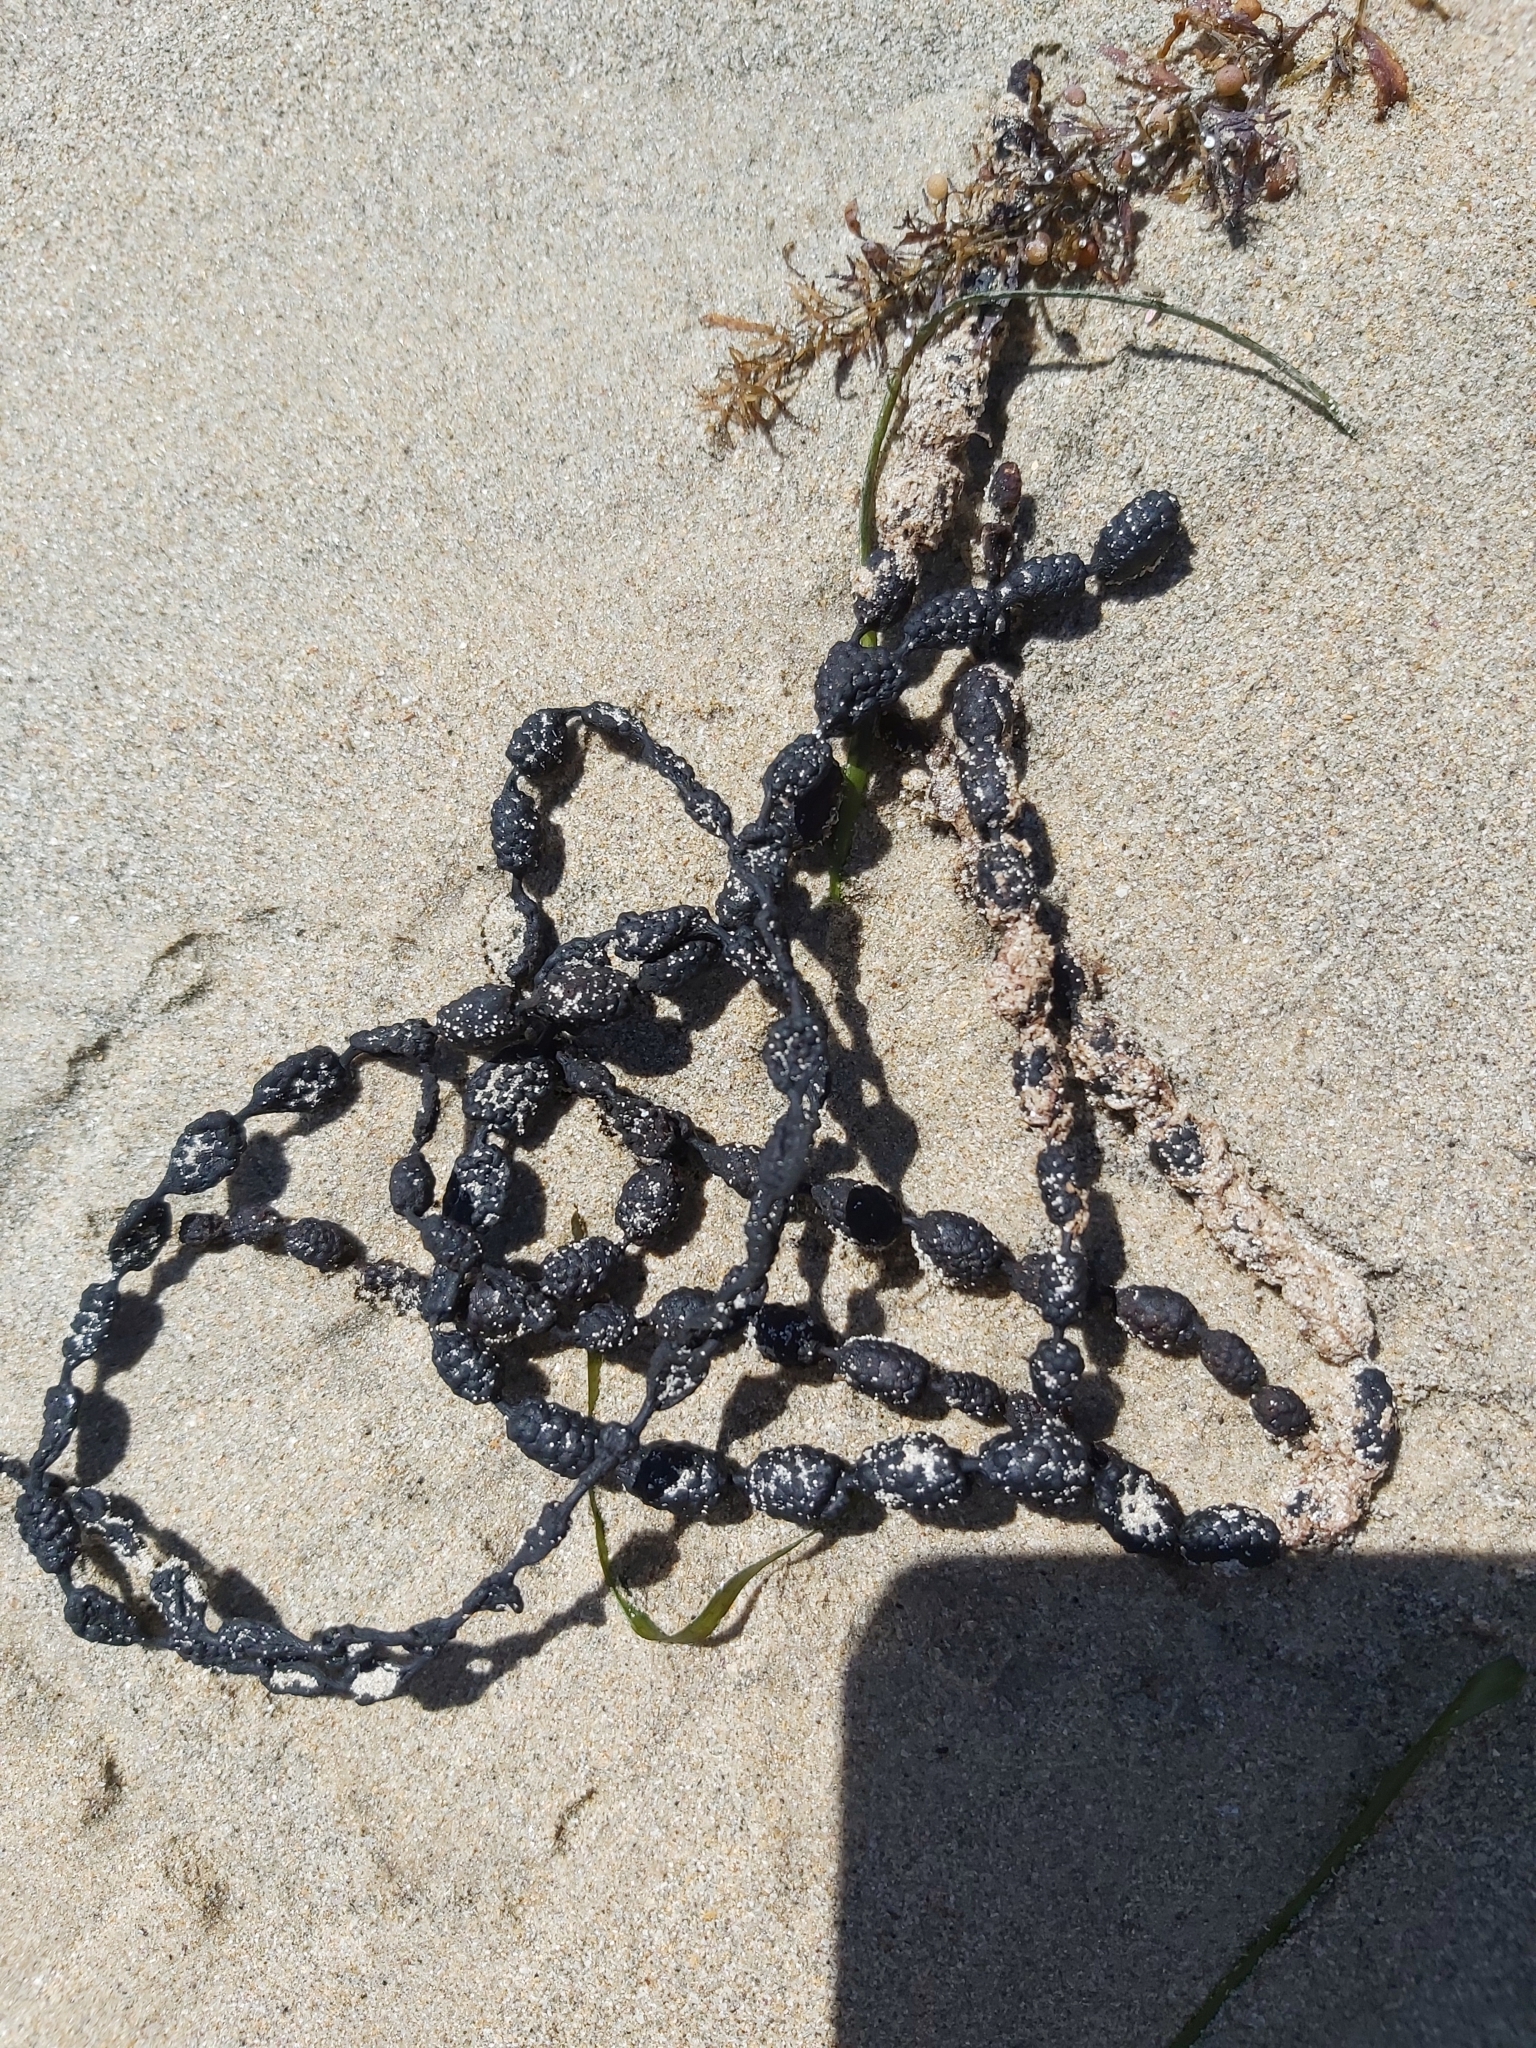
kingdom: Chromista
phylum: Ochrophyta
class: Phaeophyceae
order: Fucales
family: Hormosiraceae
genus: Hormosira
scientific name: Hormosira banksii
